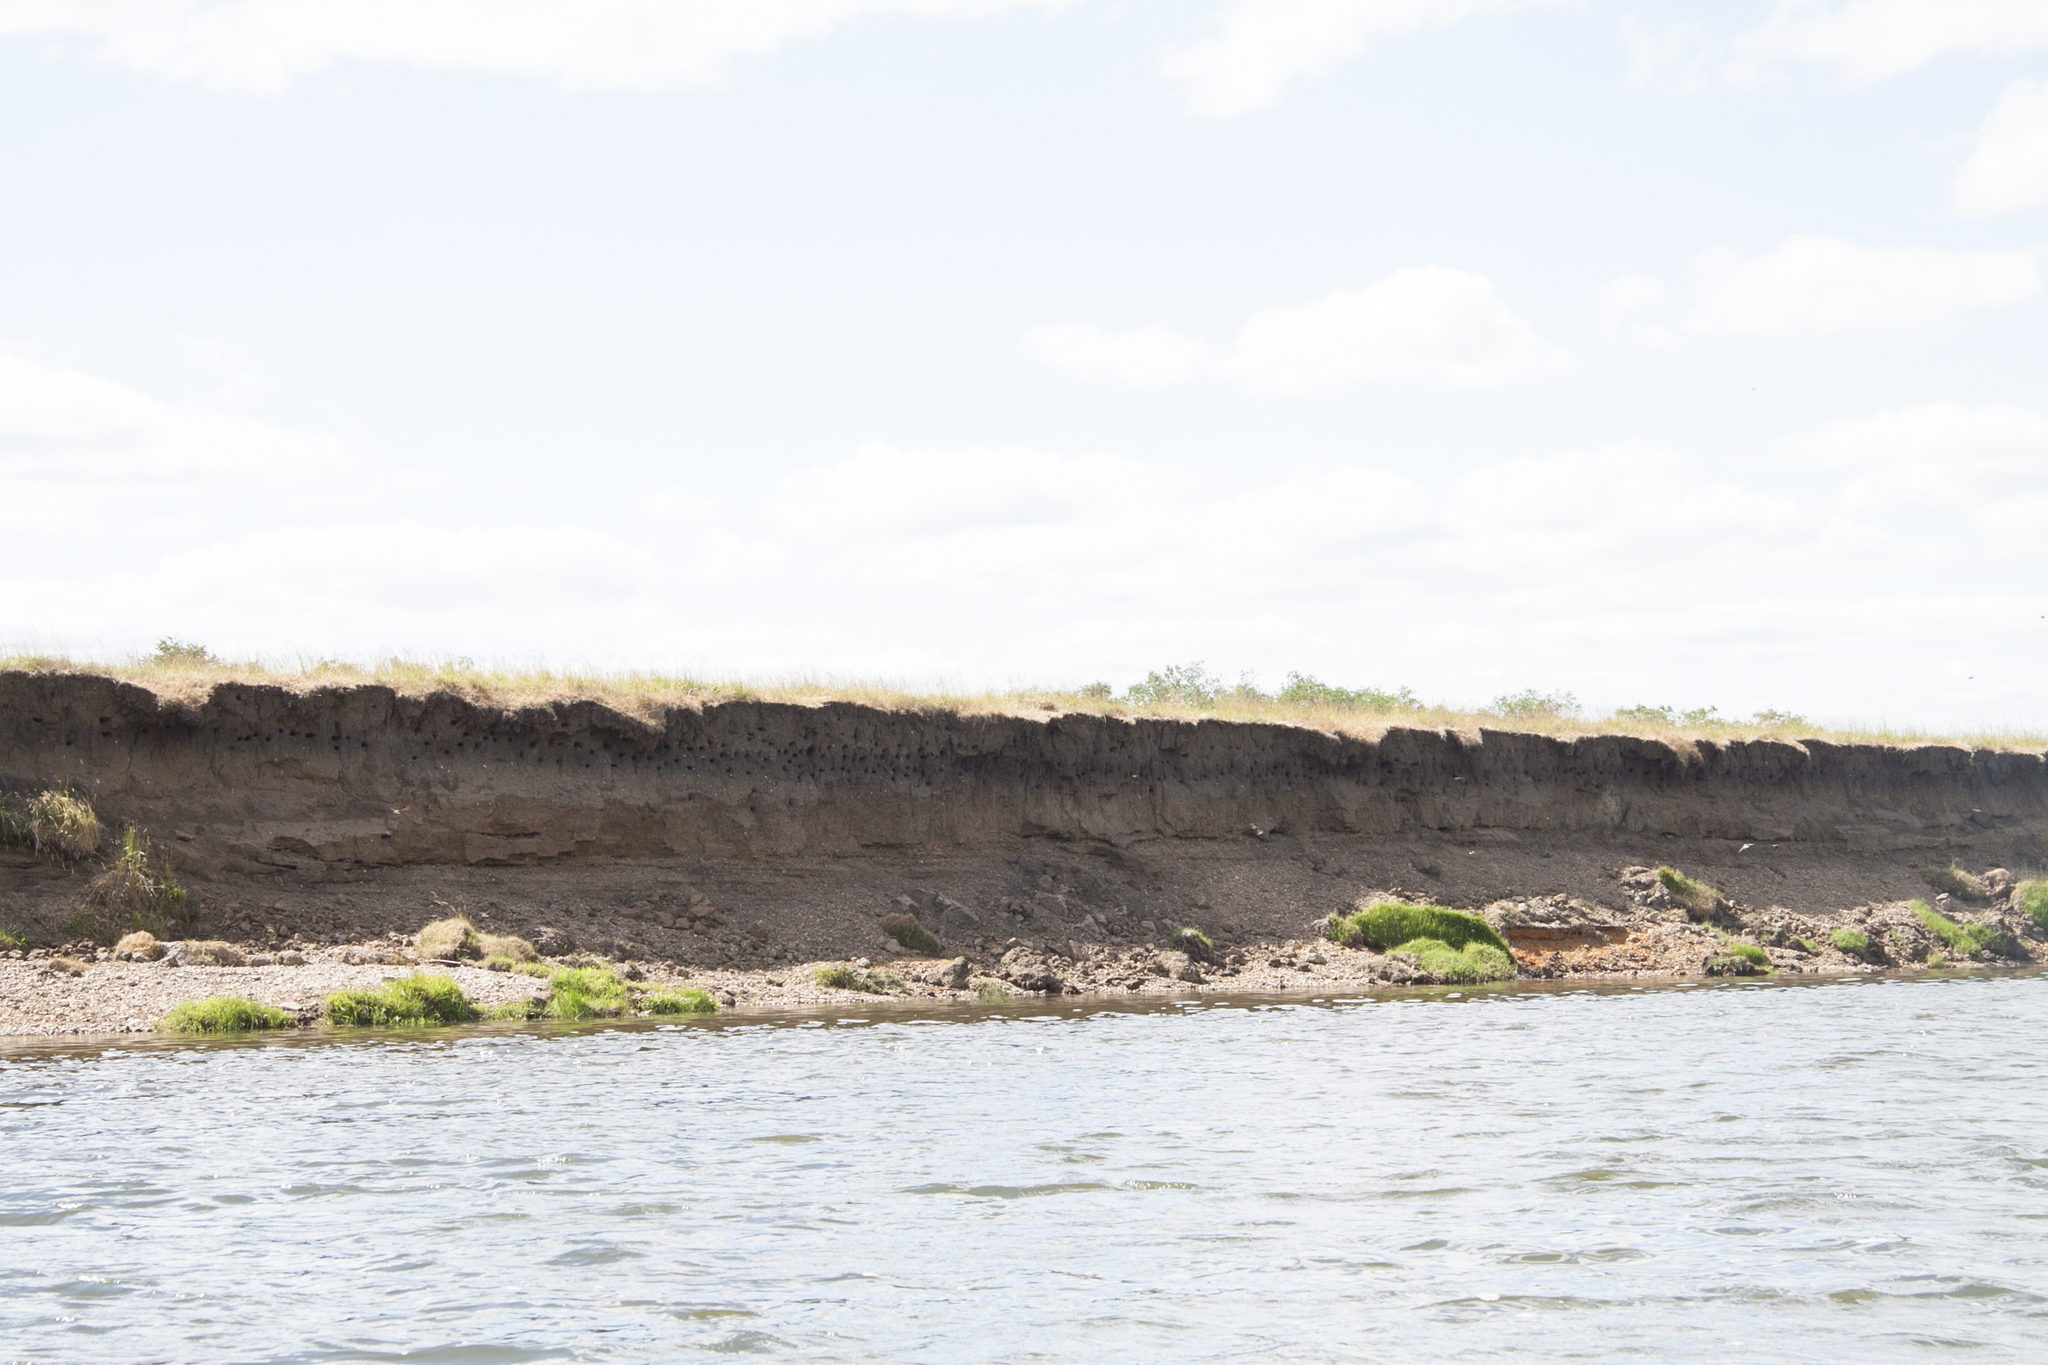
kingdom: Animalia
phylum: Chordata
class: Aves
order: Passeriformes
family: Hirundinidae
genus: Riparia
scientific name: Riparia riparia
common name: Sand martin
